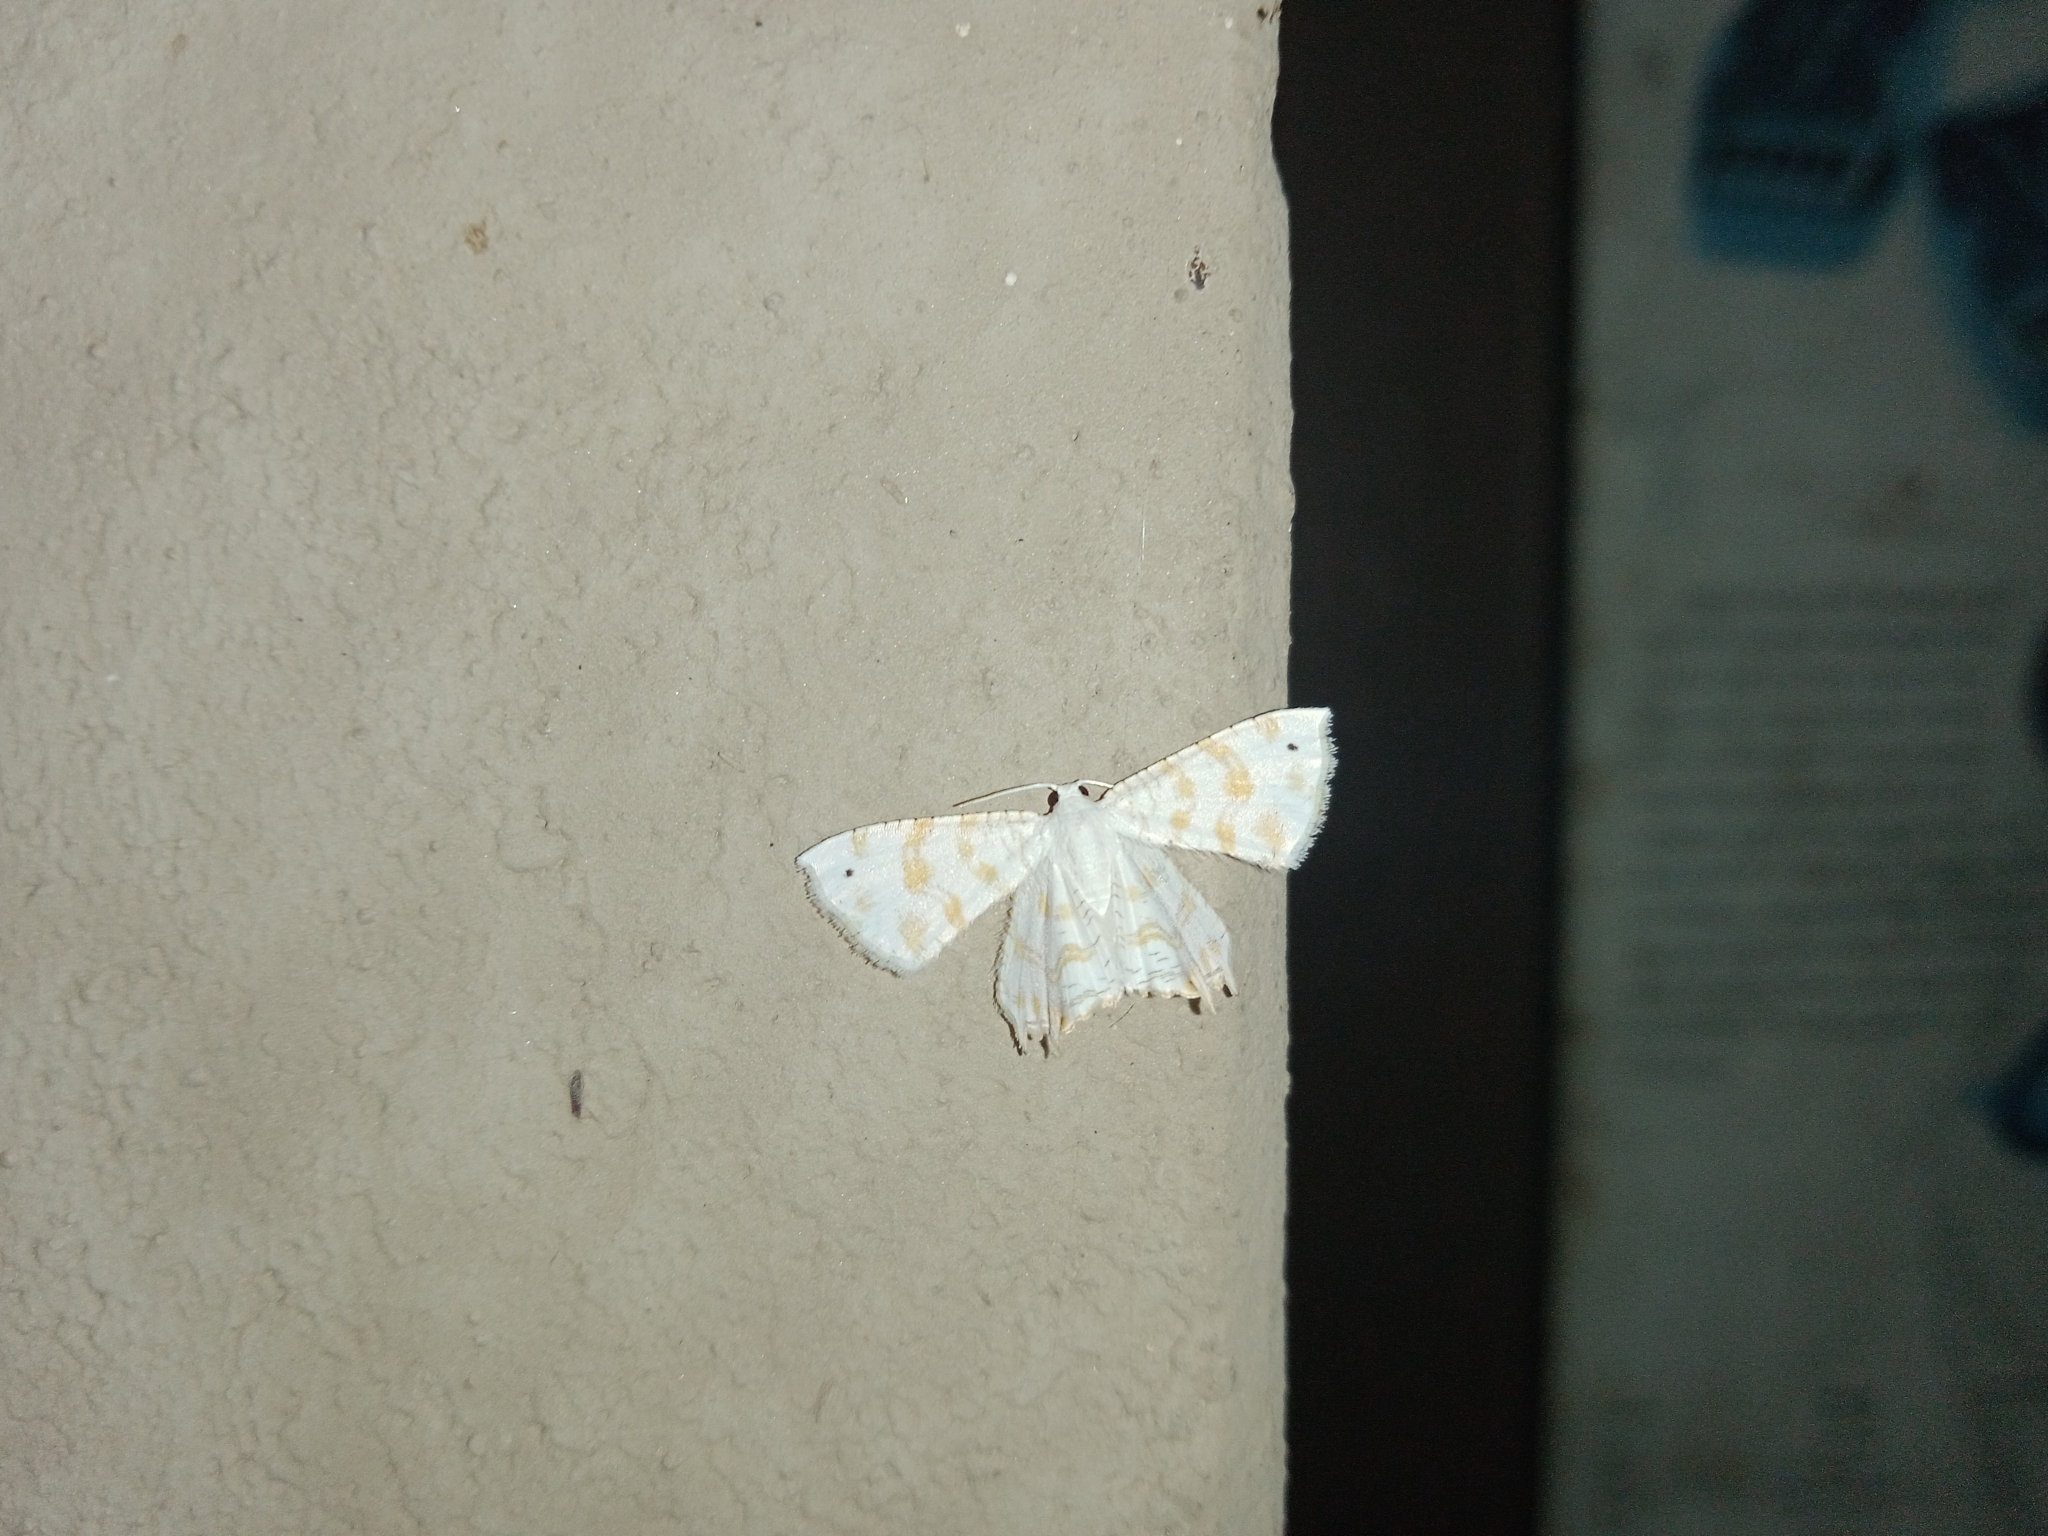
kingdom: Animalia
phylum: Arthropoda
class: Insecta
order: Lepidoptera
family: Uraniidae
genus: Epiplema
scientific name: Epiplema fulvilinea
